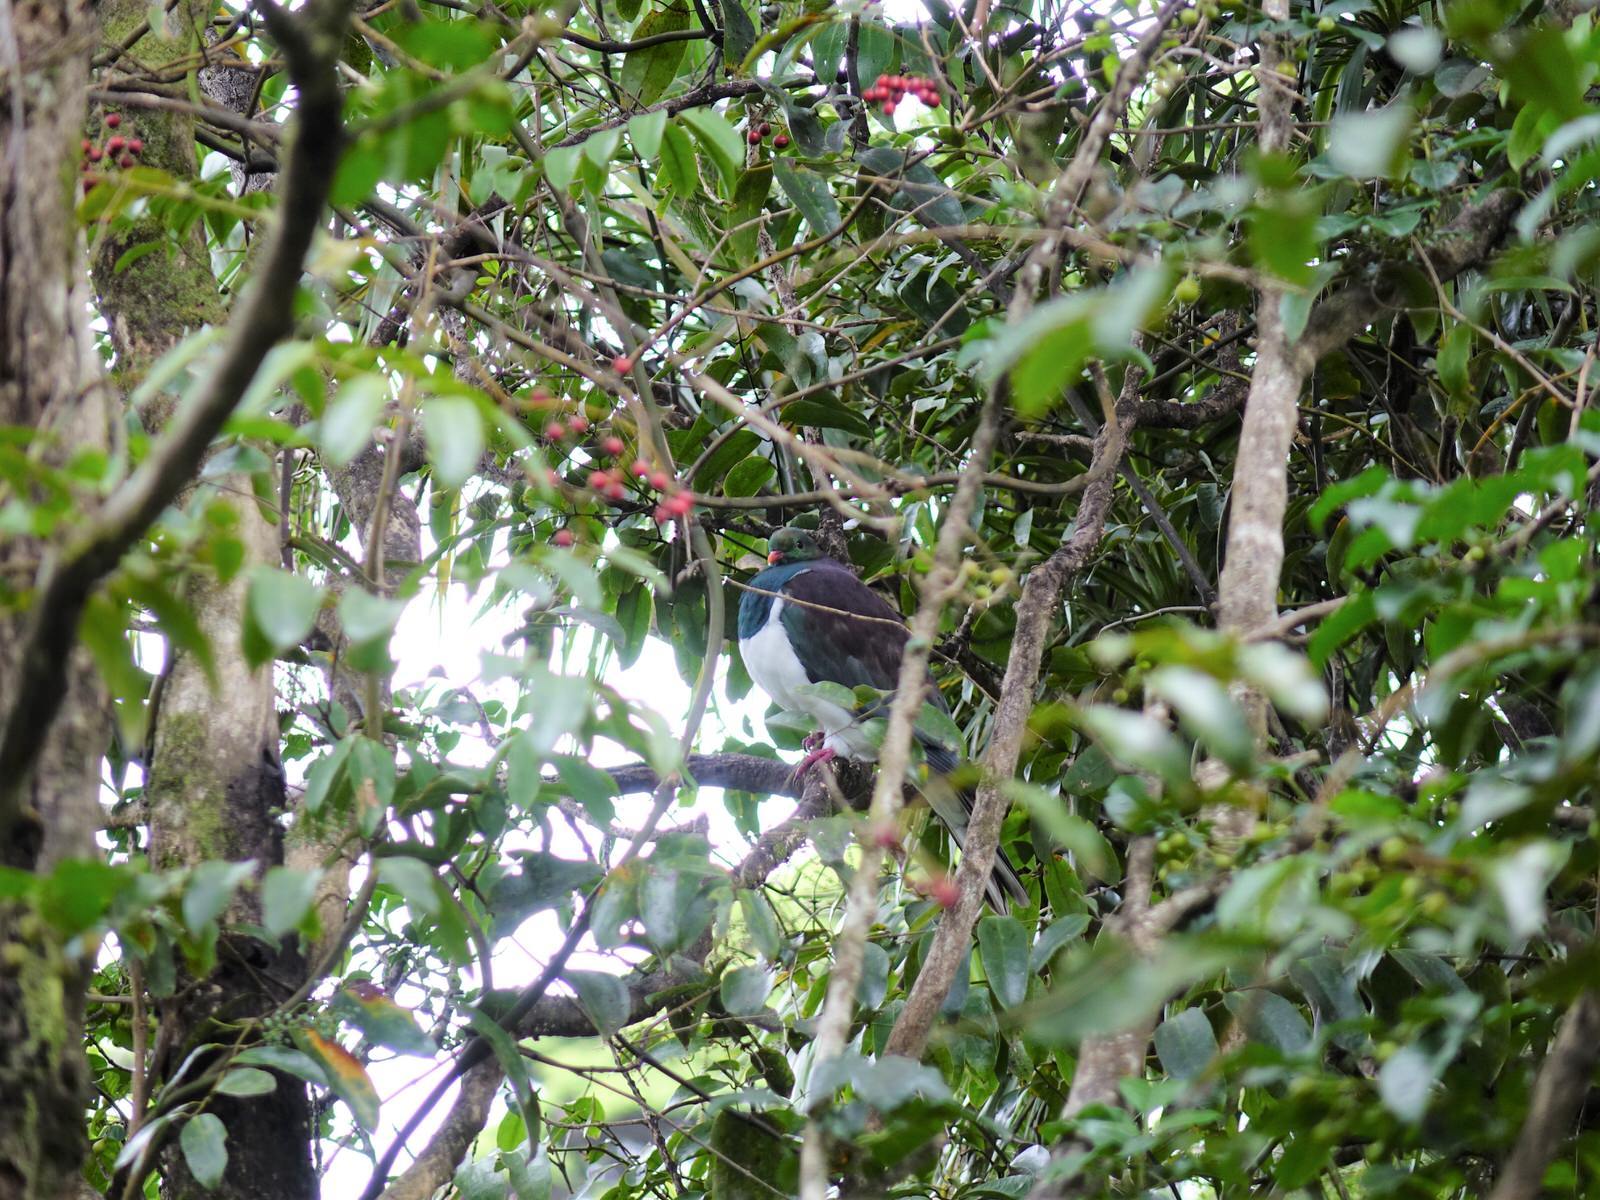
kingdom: Animalia
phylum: Chordata
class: Aves
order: Columbiformes
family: Columbidae
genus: Hemiphaga
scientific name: Hemiphaga novaeseelandiae
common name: New zealand pigeon
